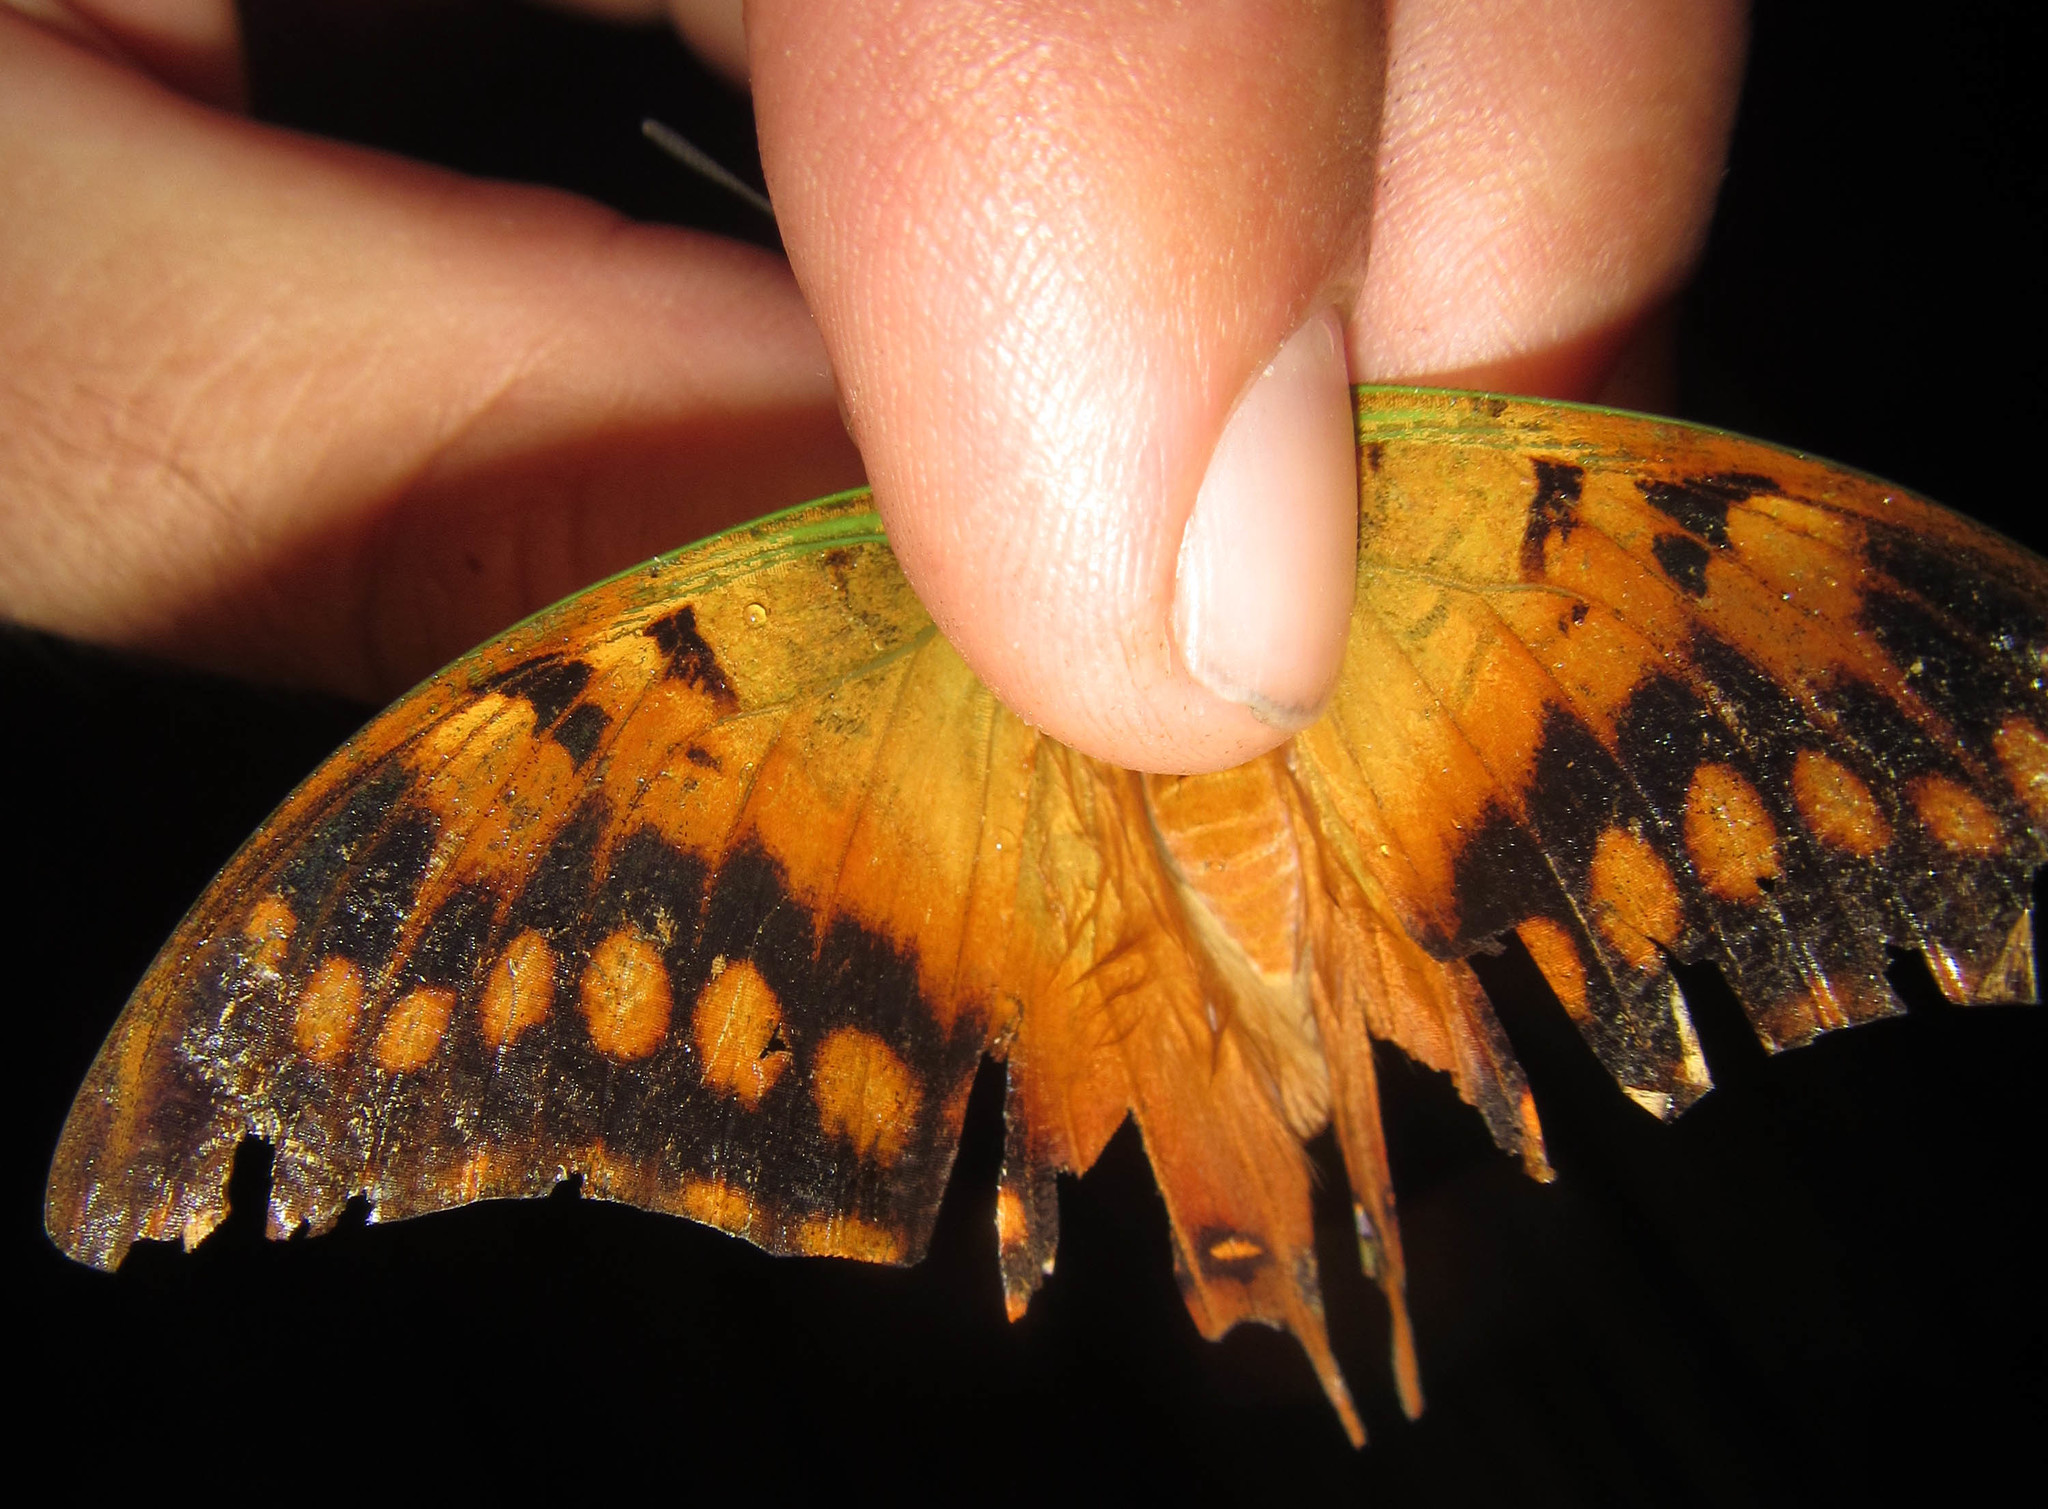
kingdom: Animalia
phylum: Arthropoda
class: Insecta
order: Lepidoptera
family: Nymphalidae
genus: Charaxes
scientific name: Charaxes candiope
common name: Green-veined charaxes
